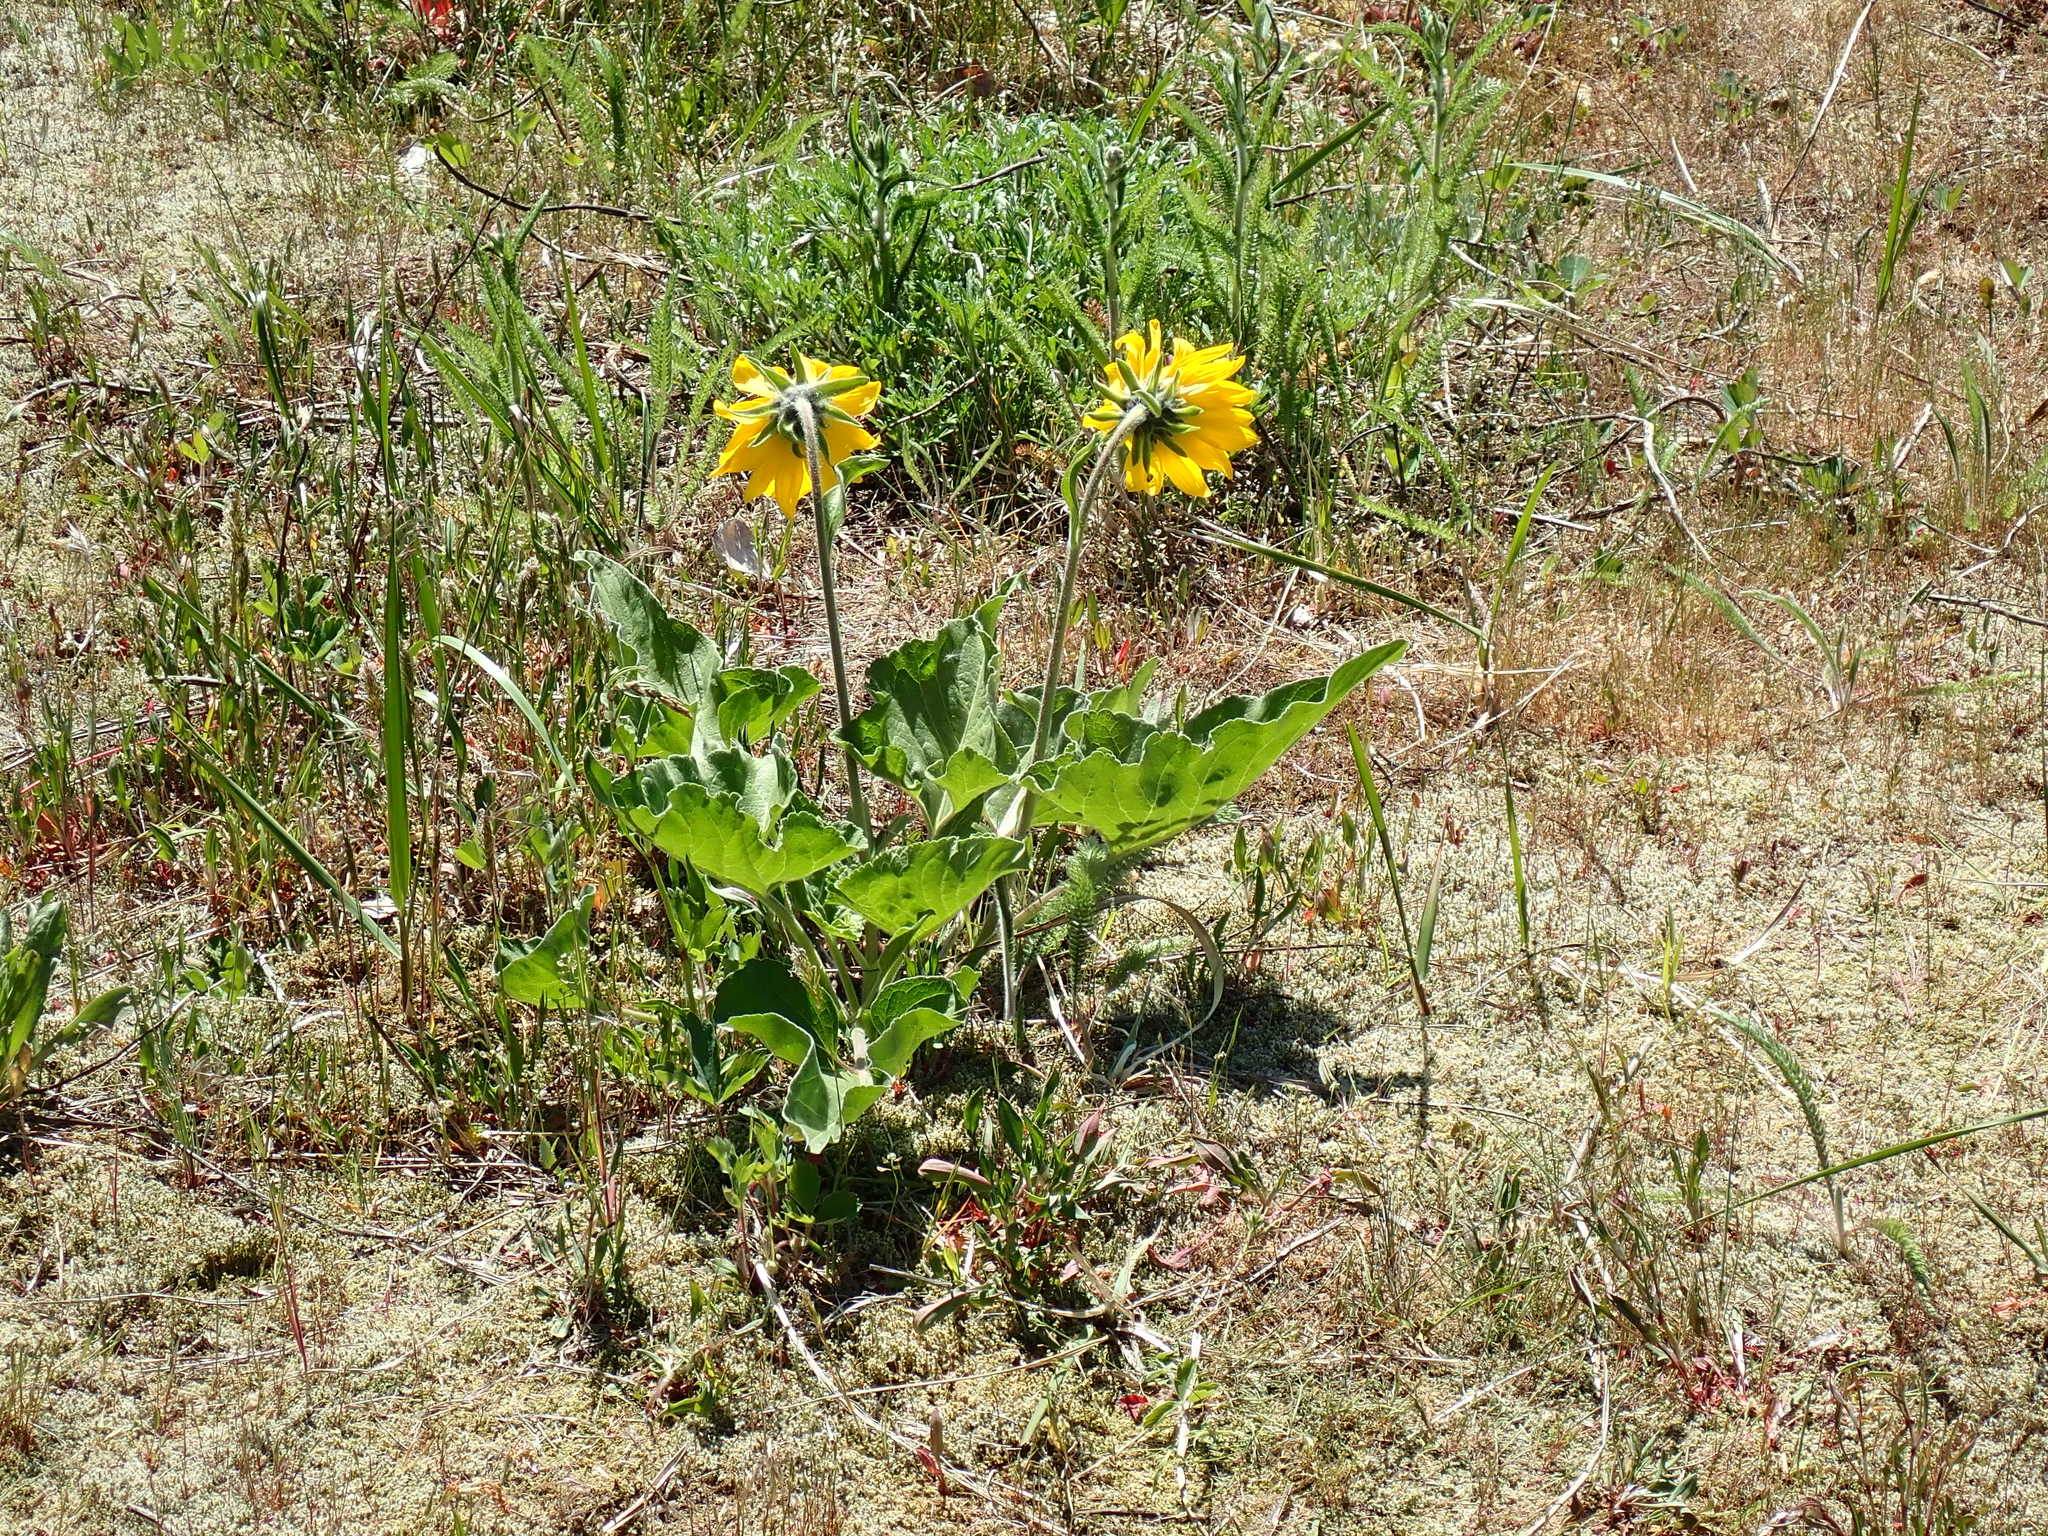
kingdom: Plantae
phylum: Tracheophyta
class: Magnoliopsida
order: Asterales
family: Asteraceae
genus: Balsamorhiza
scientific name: Balsamorhiza deltoidea
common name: Deltoid balsamroot
